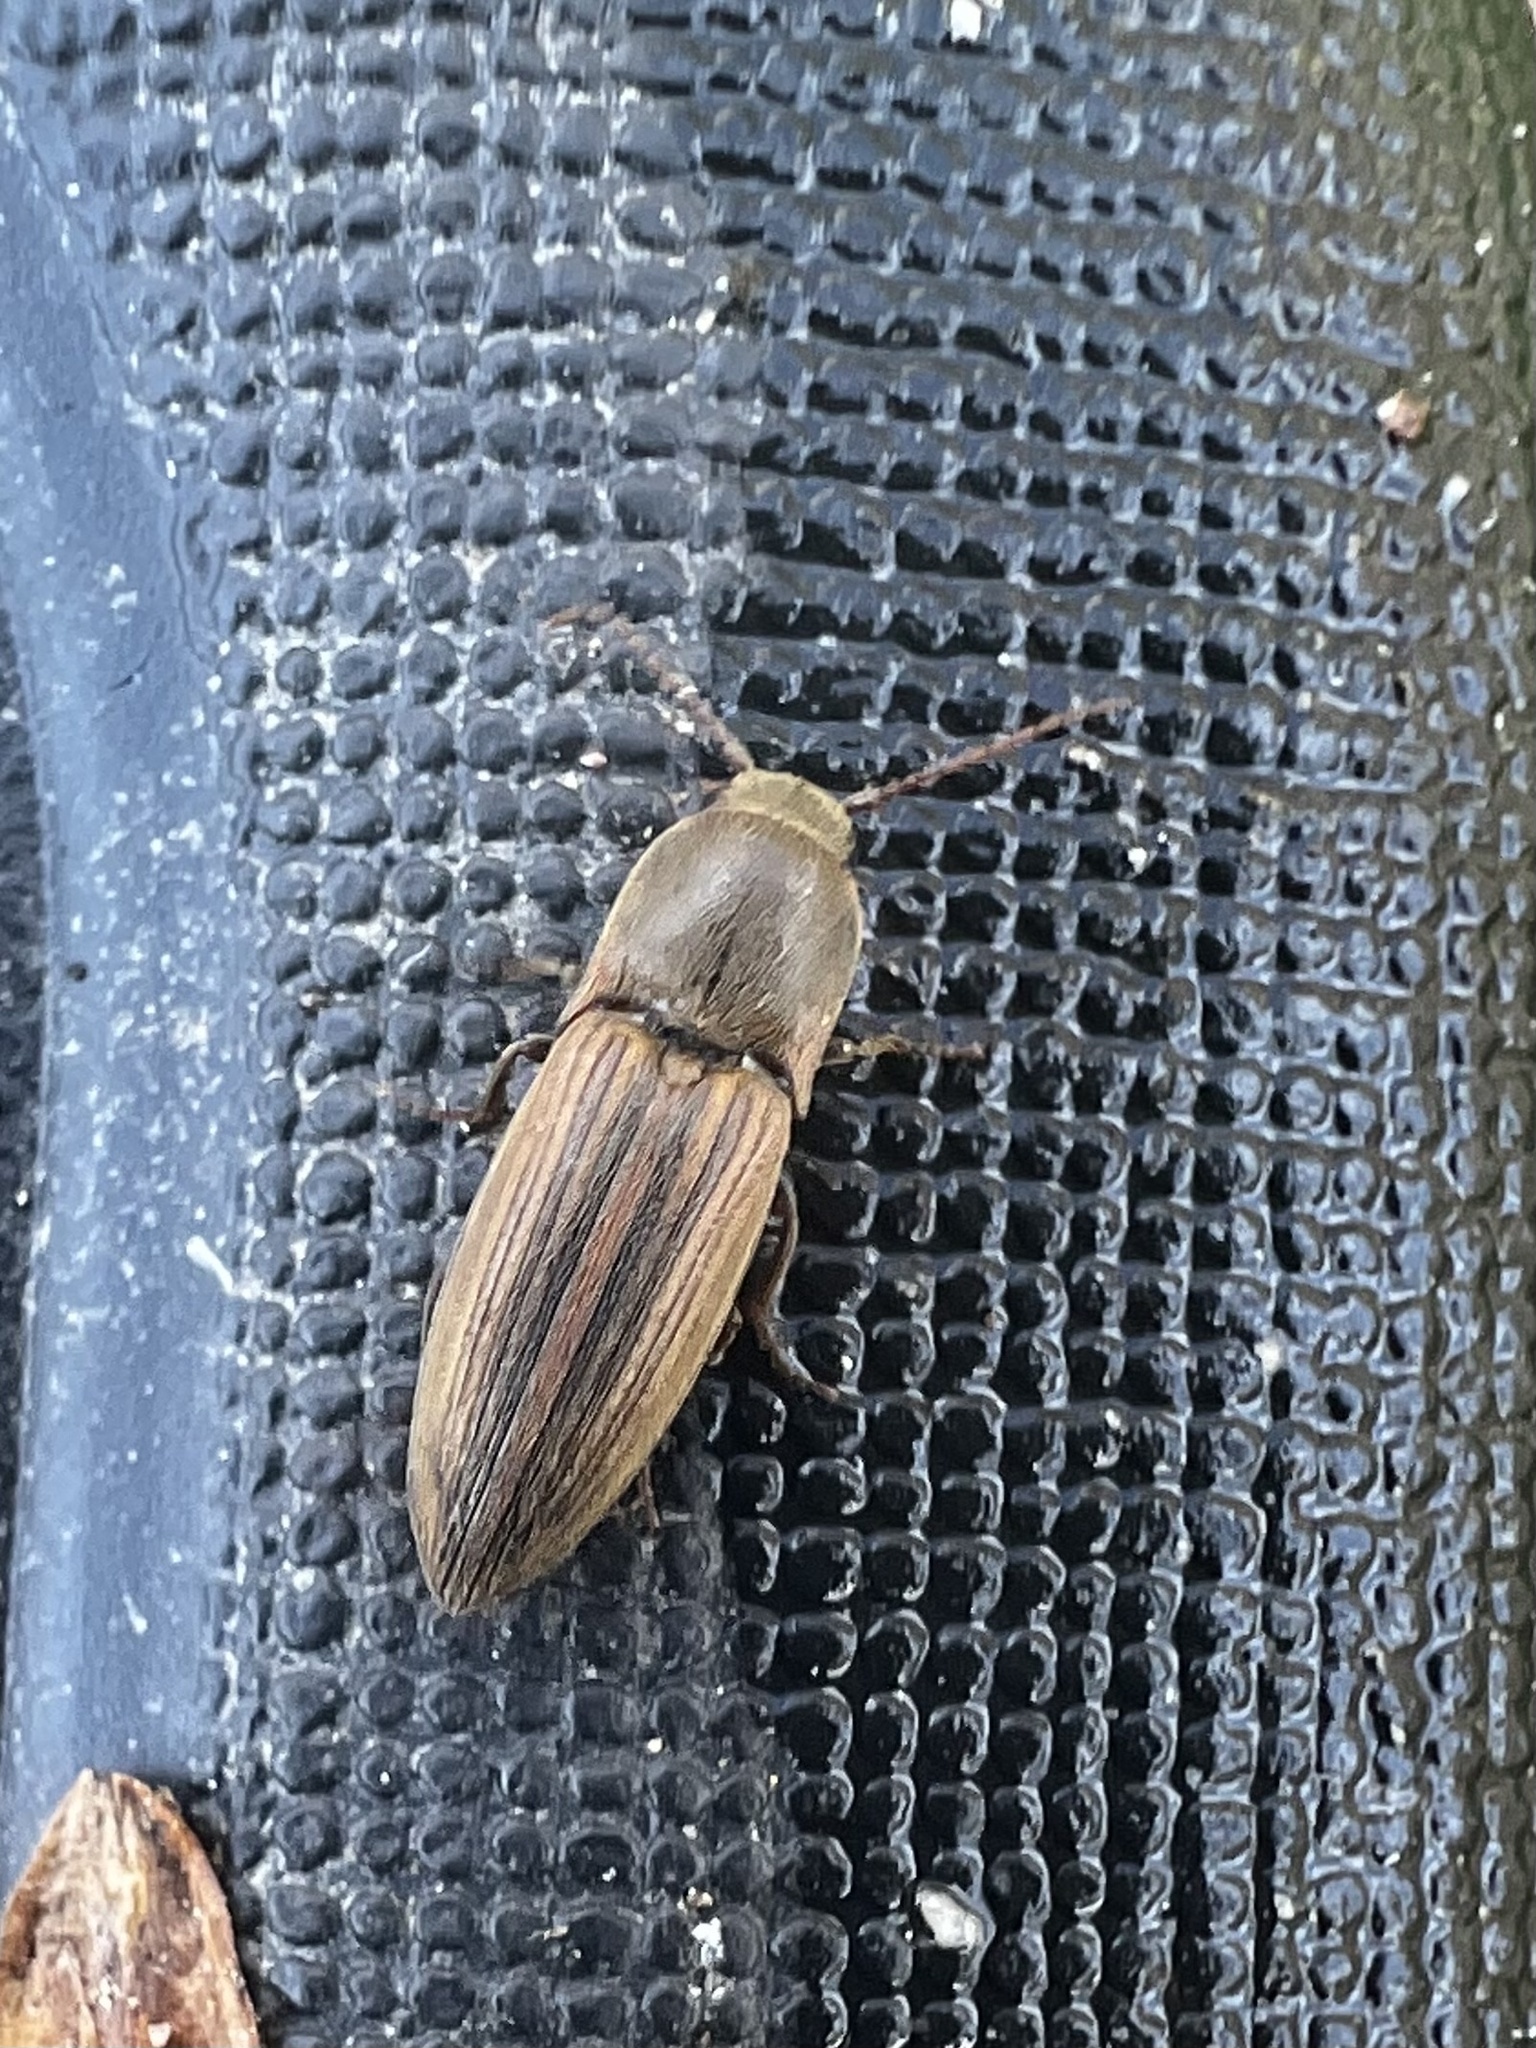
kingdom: Animalia
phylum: Arthropoda
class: Insecta
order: Coleoptera
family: Elateridae
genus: Agriotes
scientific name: Agriotes lineatus
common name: Lined click beetle
